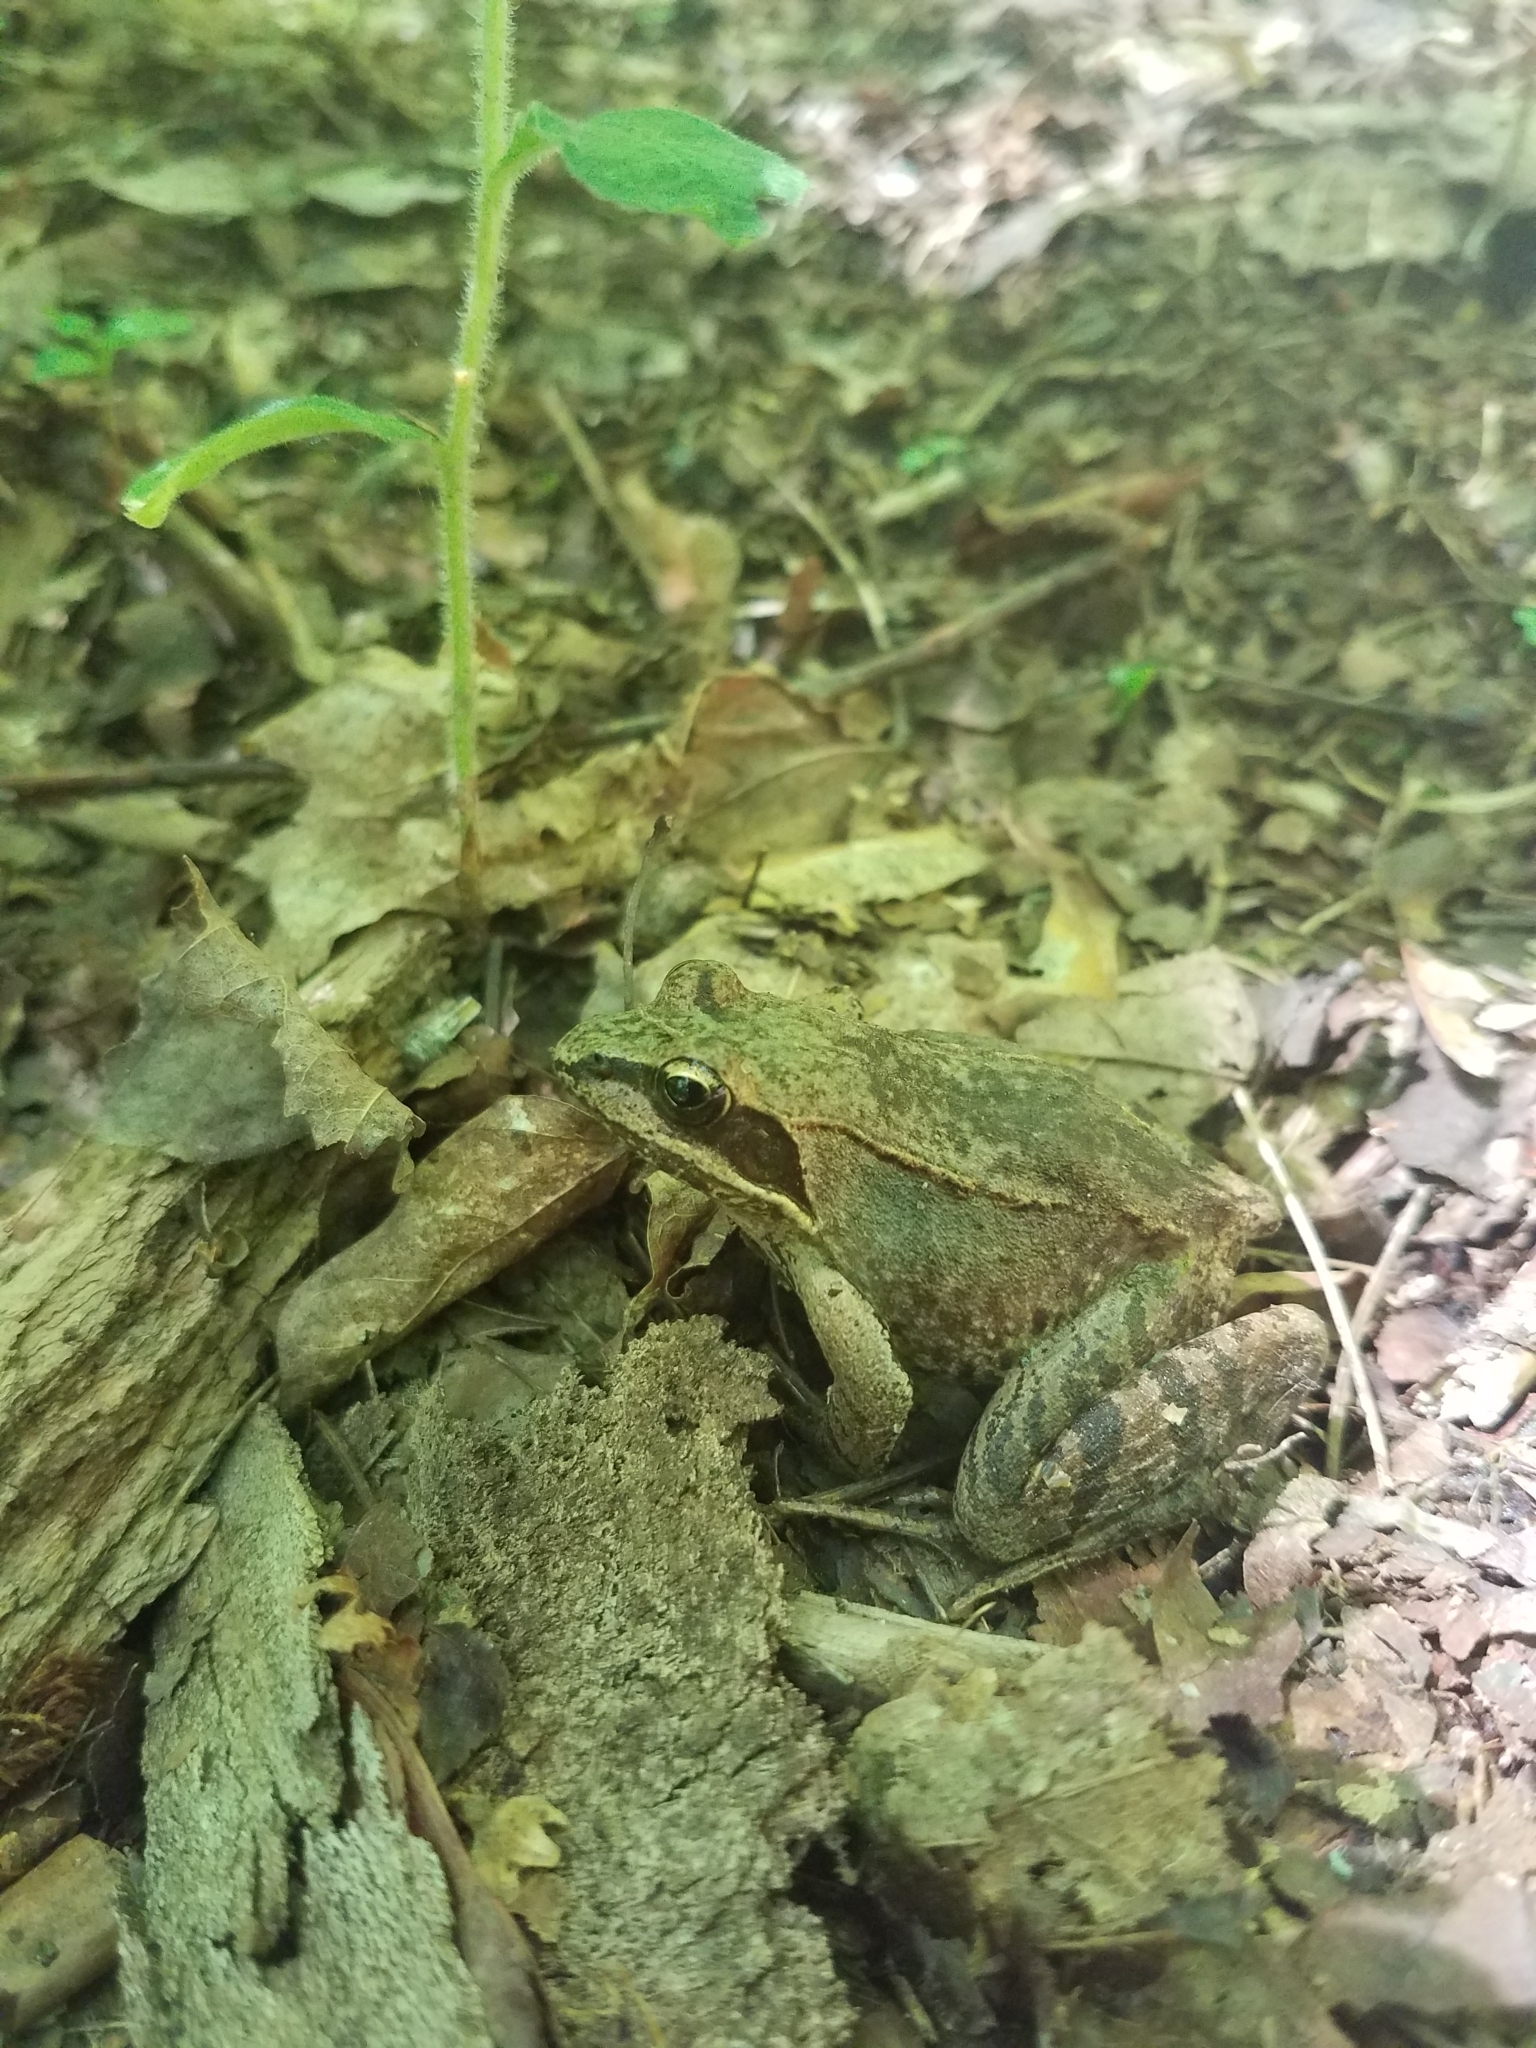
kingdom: Animalia
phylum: Chordata
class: Amphibia
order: Anura
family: Ranidae
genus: Lithobates
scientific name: Lithobates sylvaticus
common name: Wood frog
